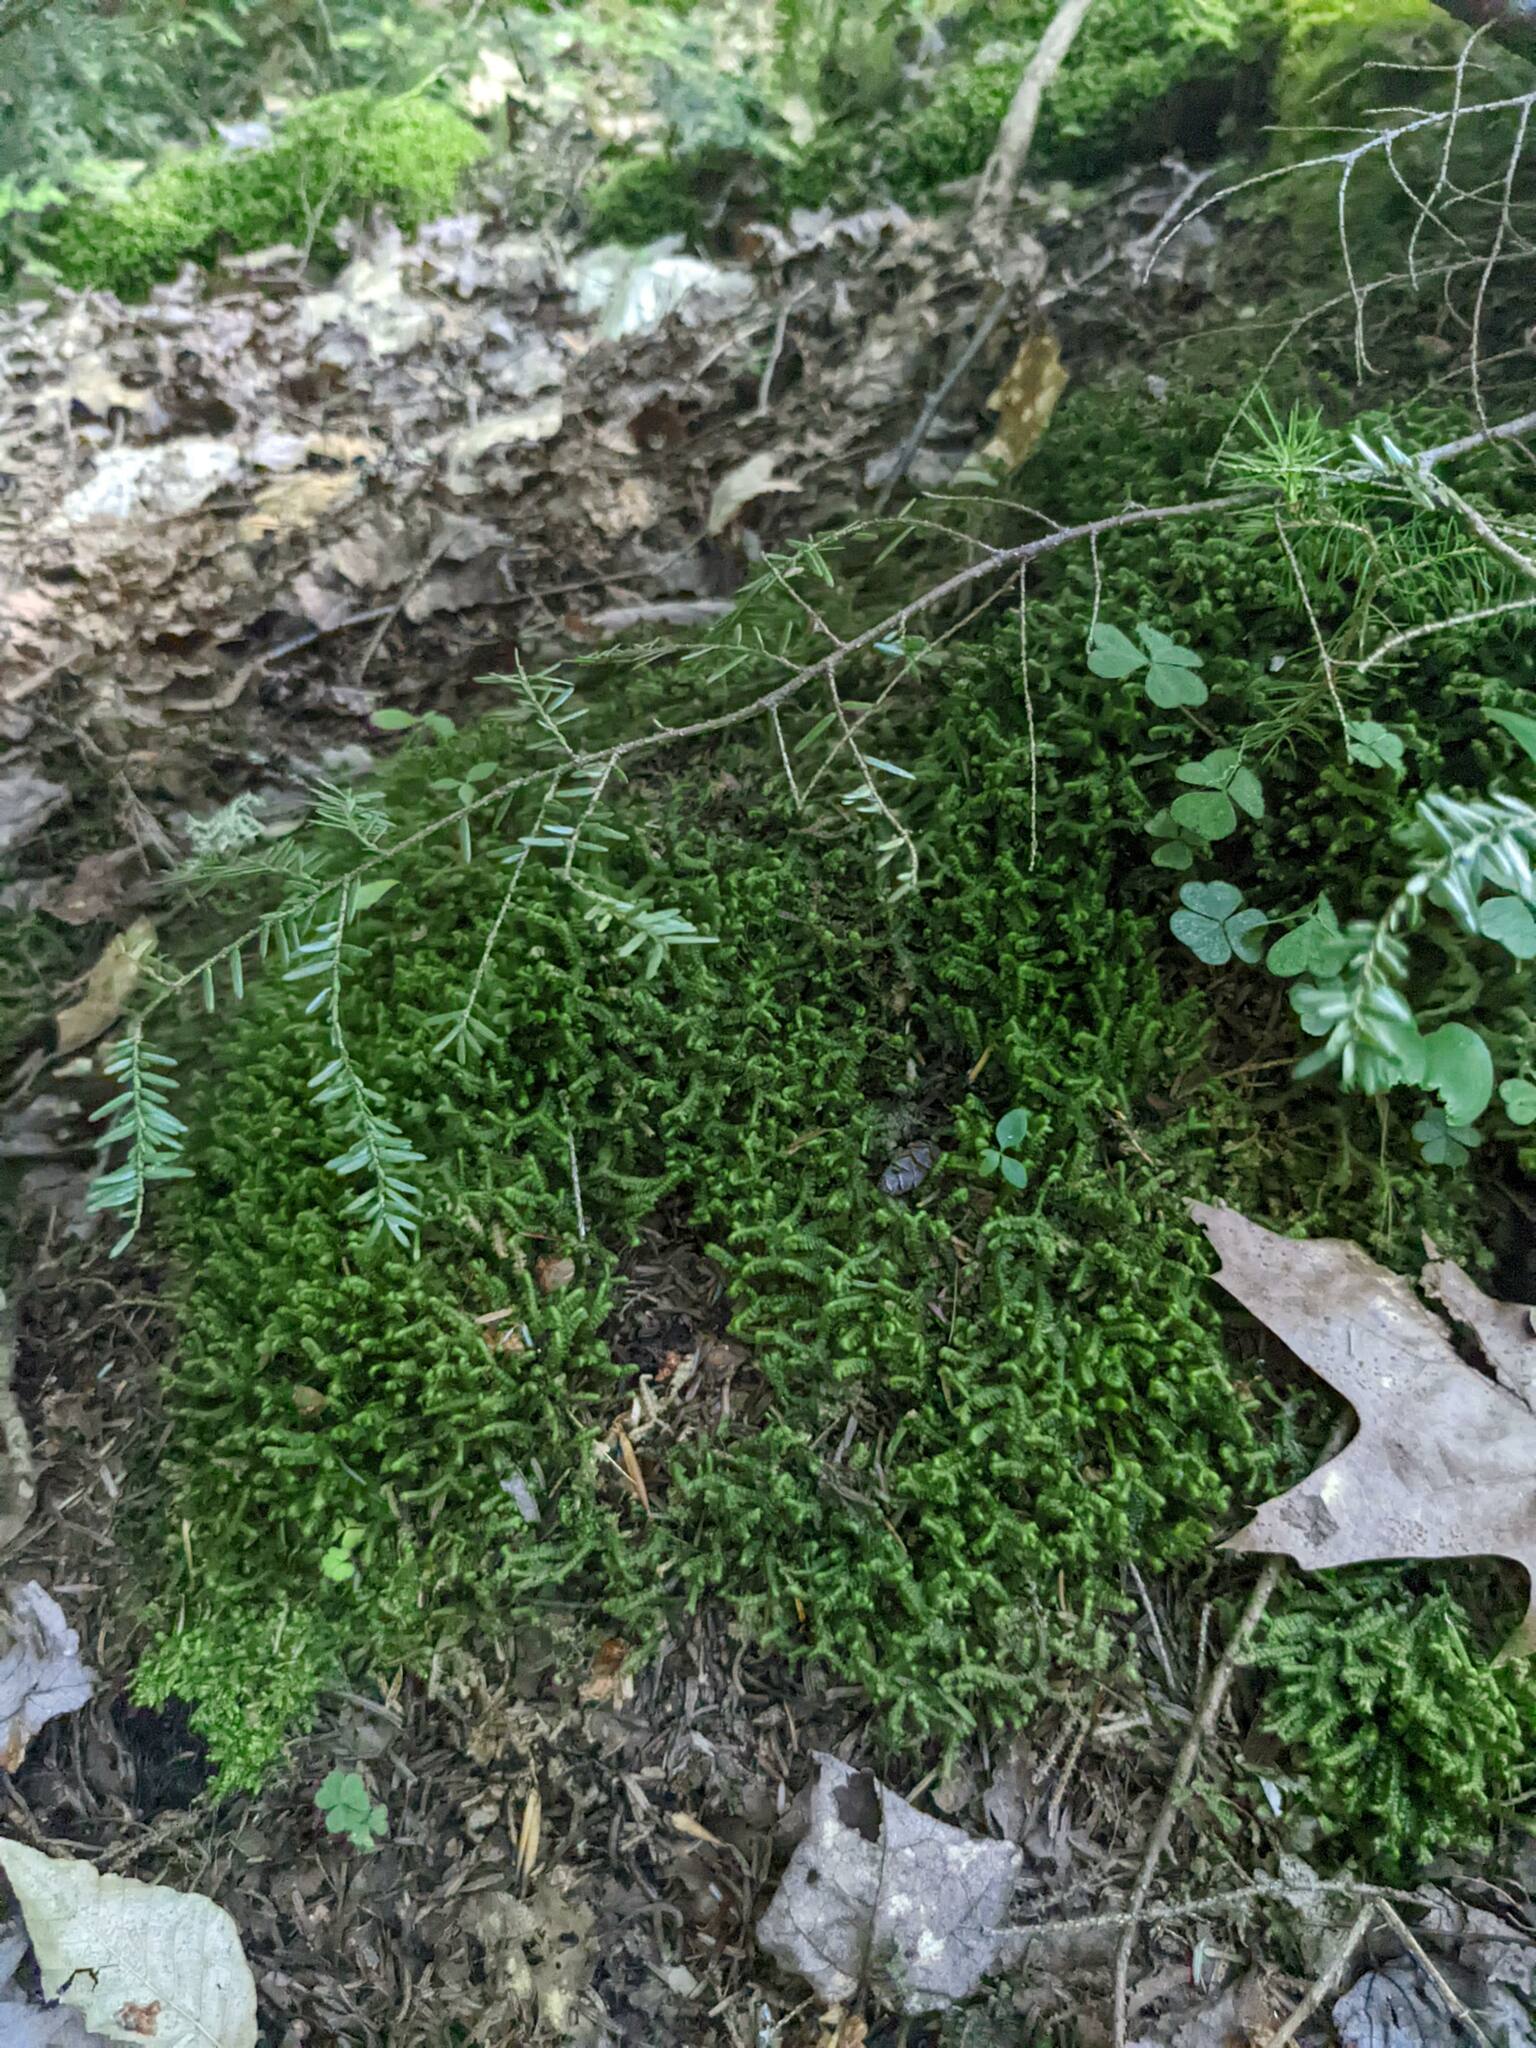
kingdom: Plantae
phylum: Tracheophyta
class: Pinopsida
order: Pinales
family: Pinaceae
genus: Tsuga
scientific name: Tsuga canadensis
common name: Eastern hemlock
